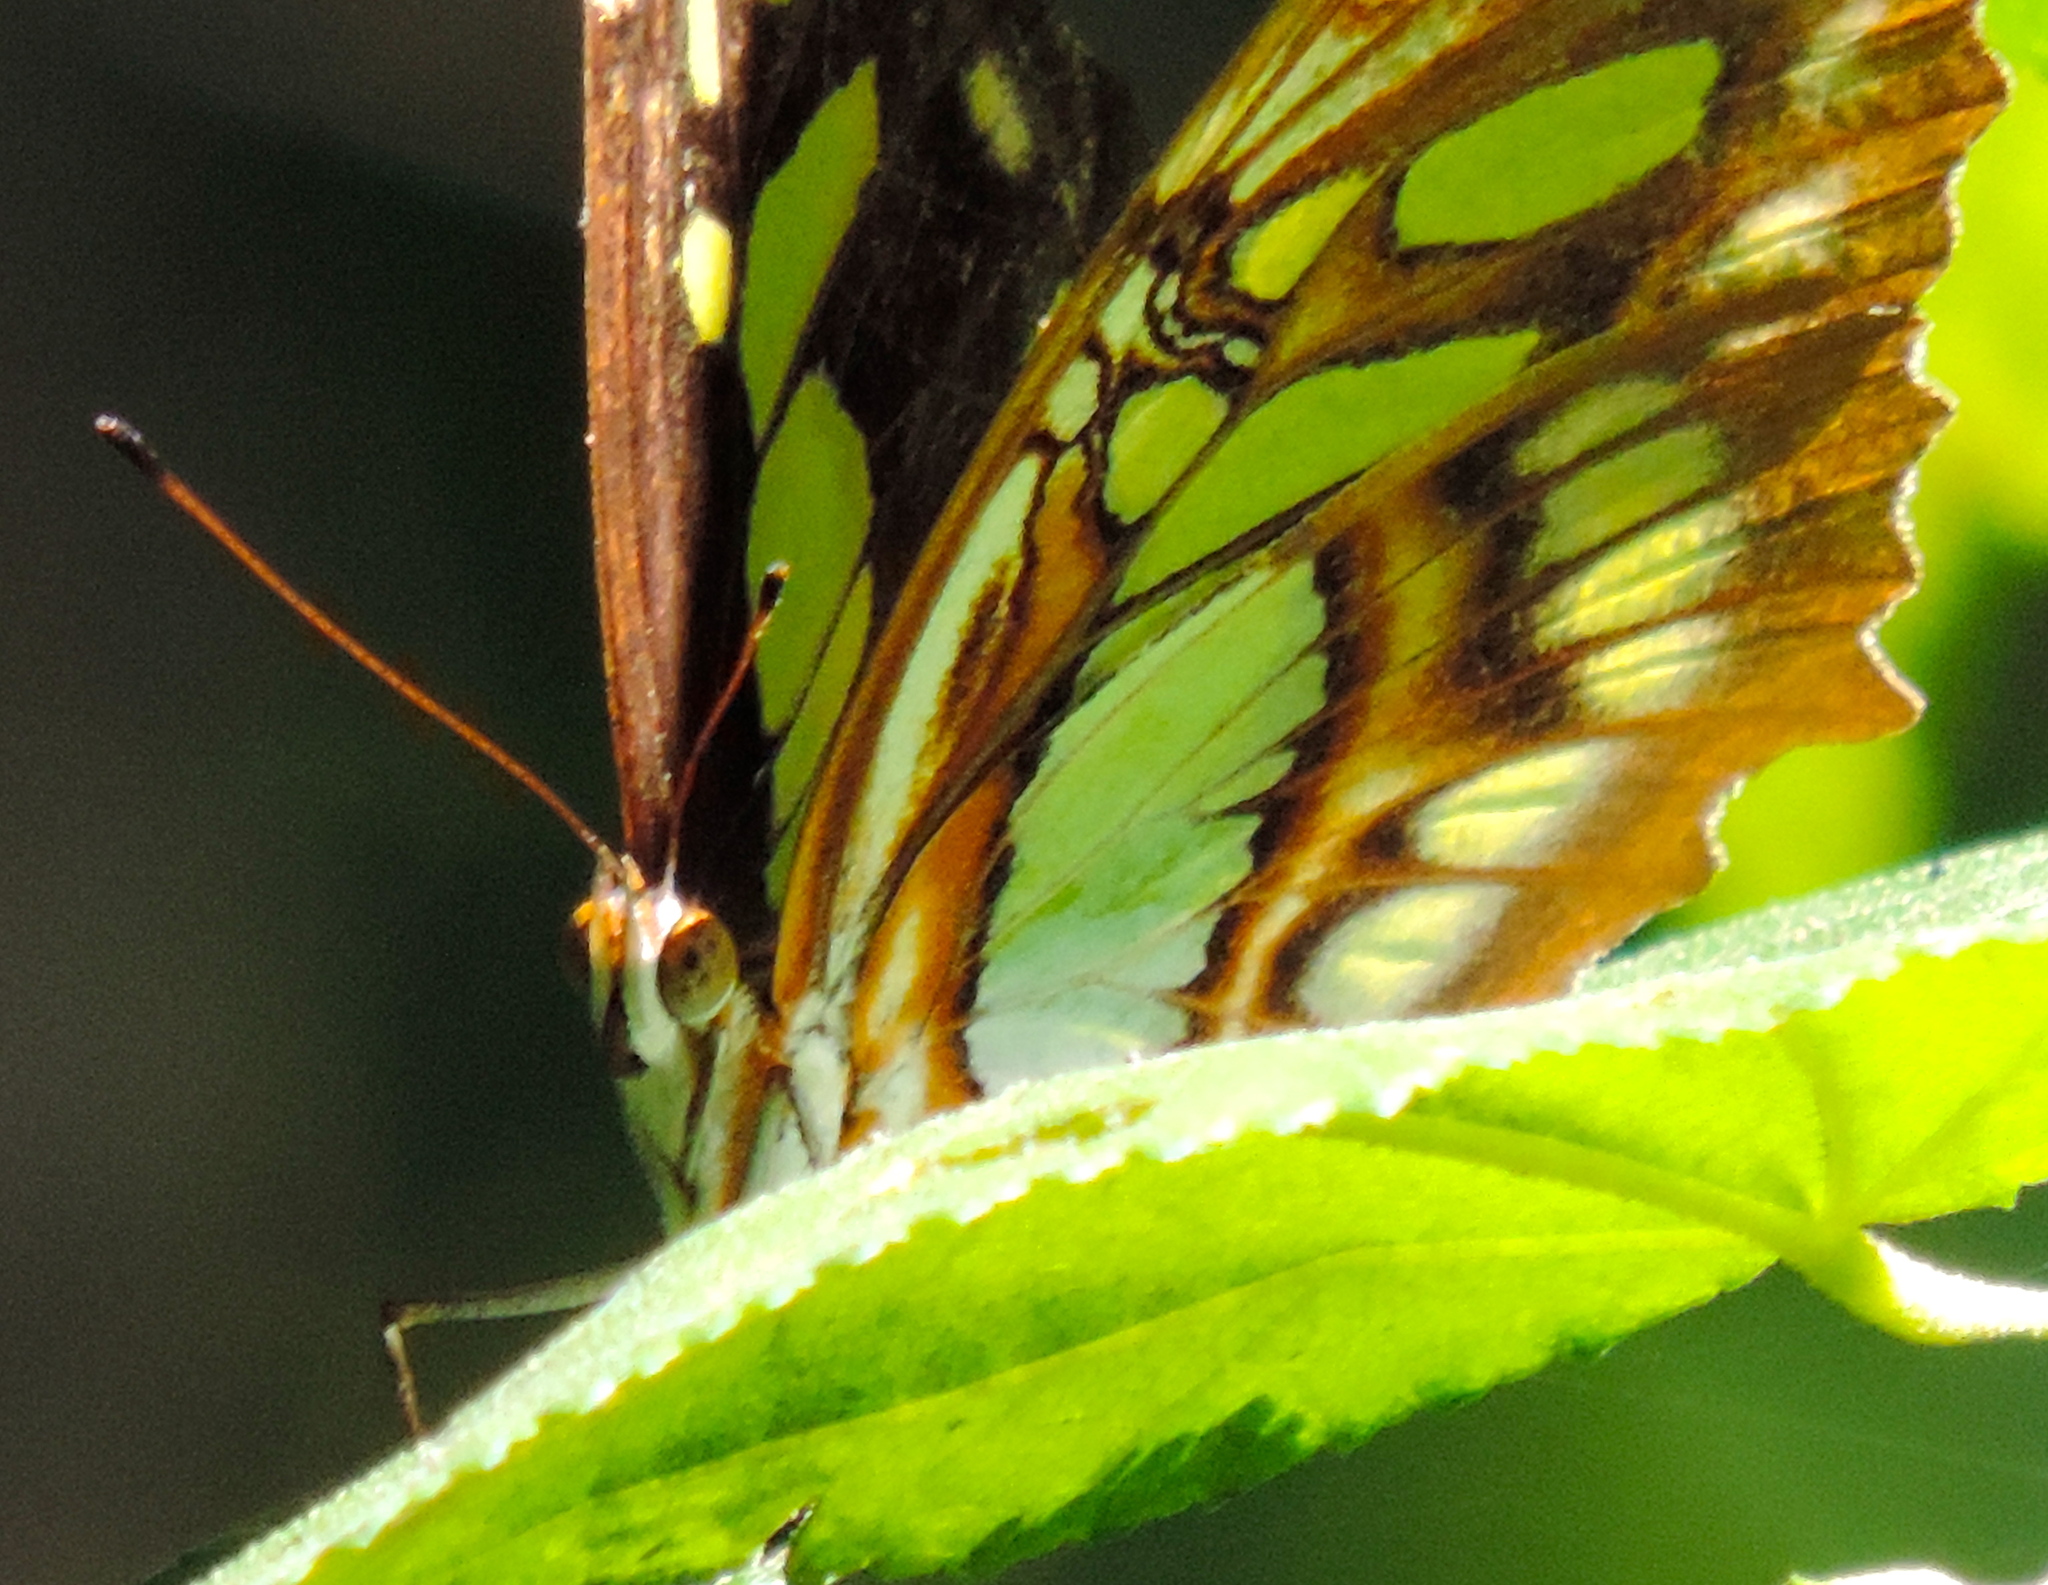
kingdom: Animalia
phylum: Arthropoda
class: Insecta
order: Lepidoptera
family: Nymphalidae
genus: Siproeta
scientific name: Siproeta stelenes
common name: Malachite
